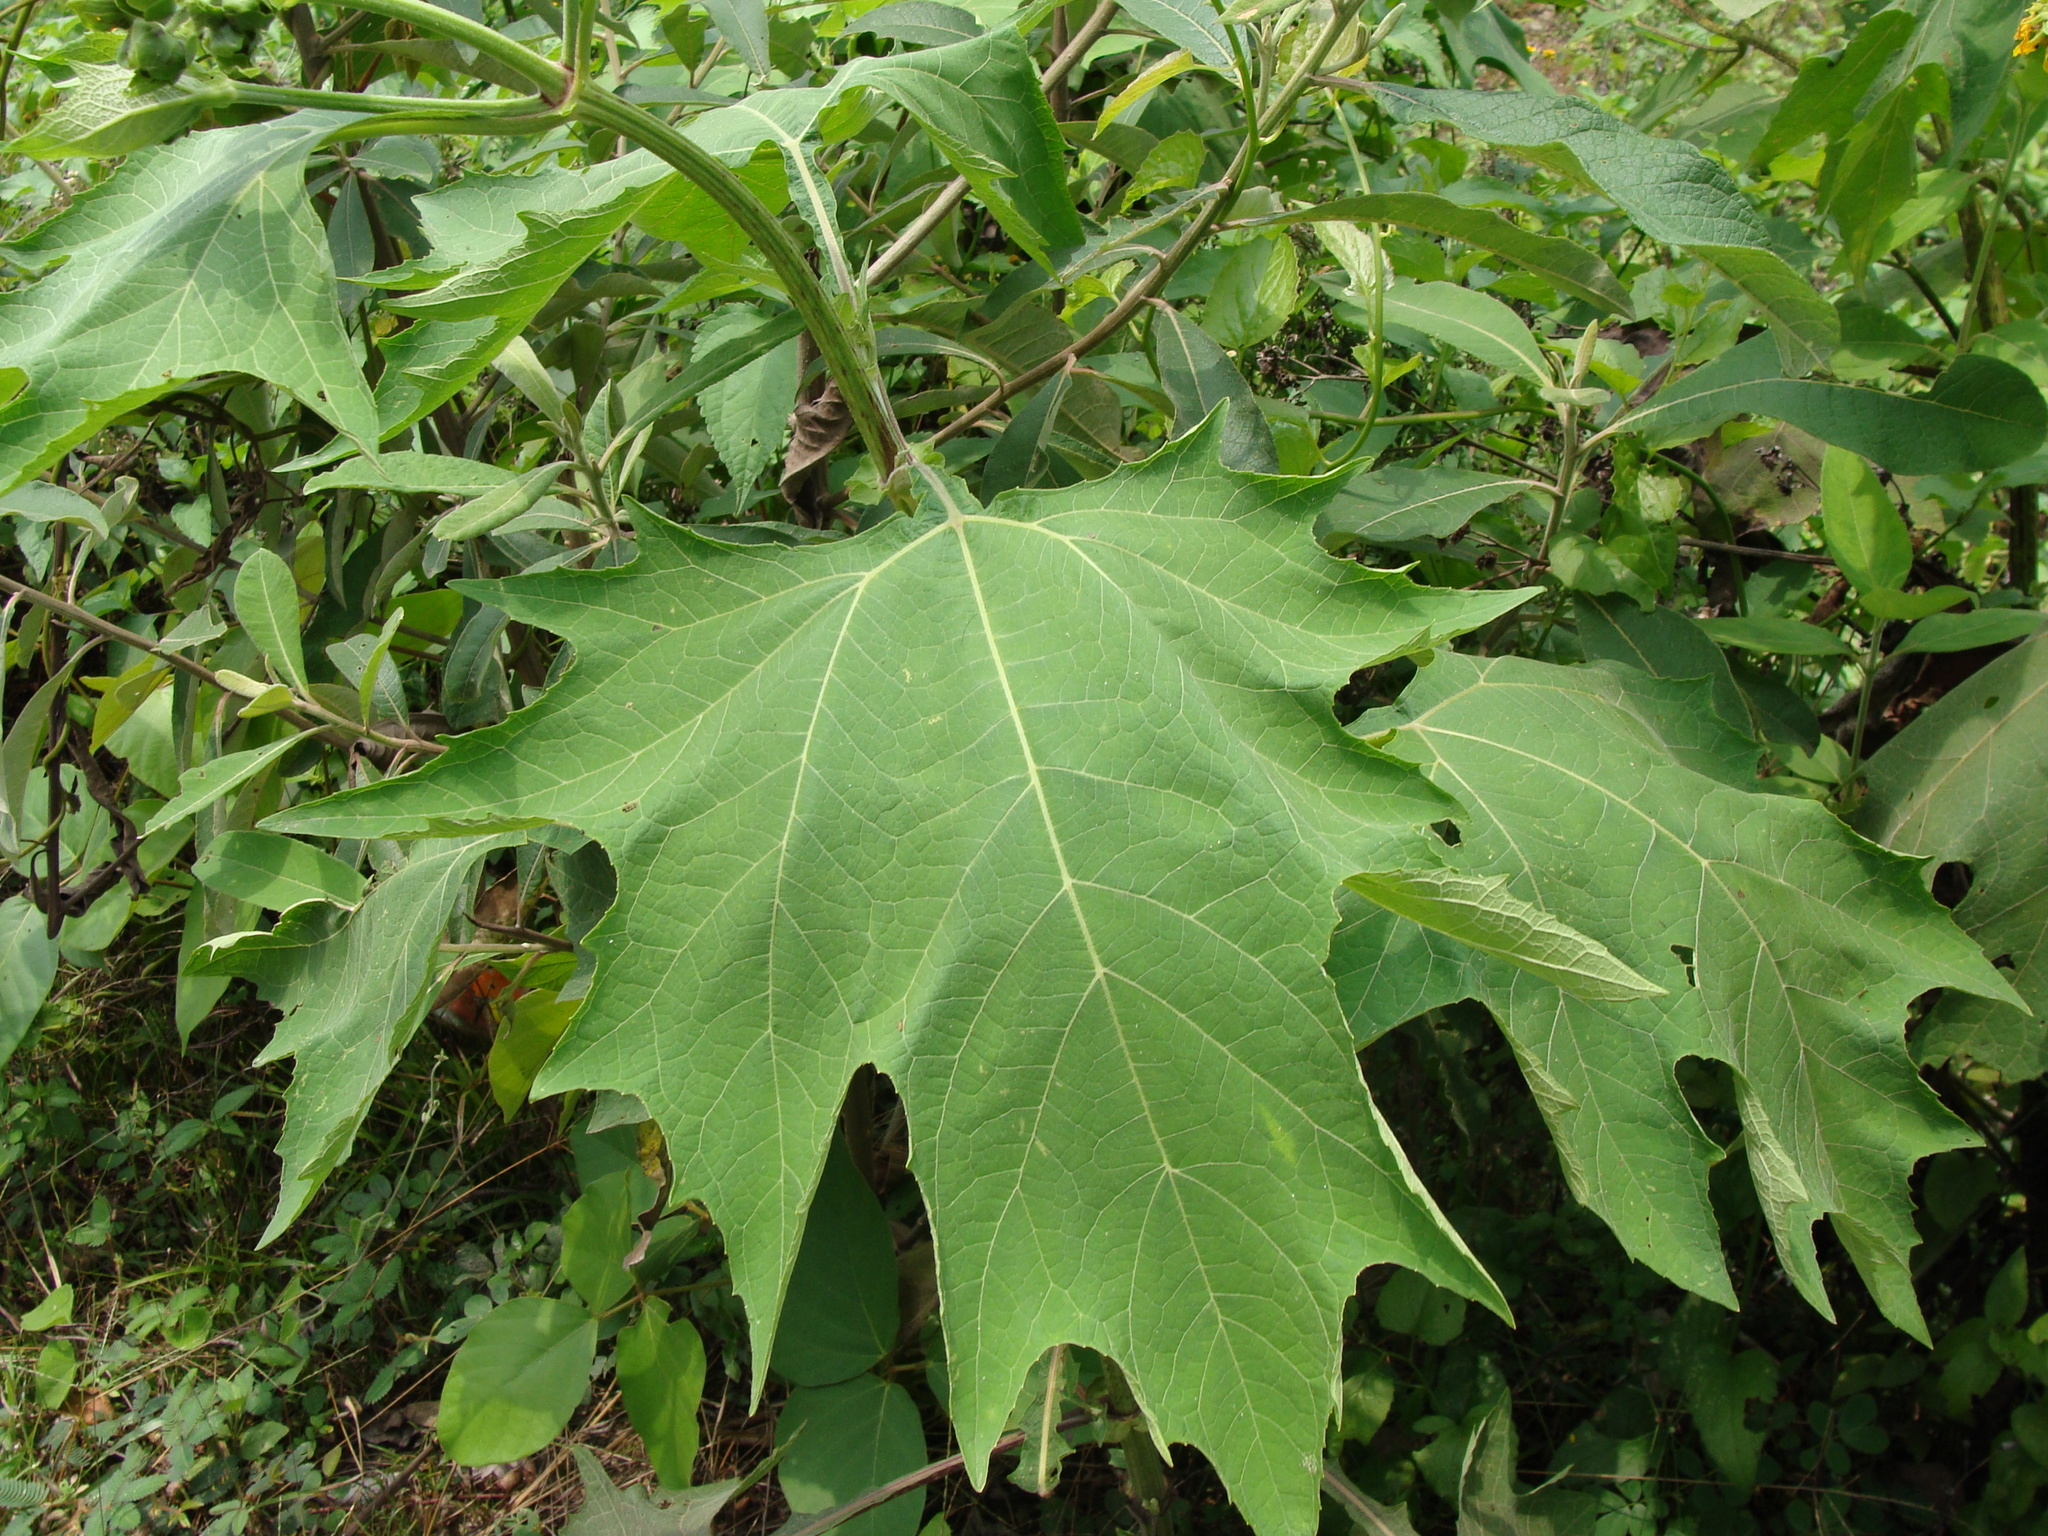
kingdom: Plantae
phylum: Tracheophyta
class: Magnoliopsida
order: Asterales
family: Asteraceae
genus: Smallanthus
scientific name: Smallanthus maculatus
